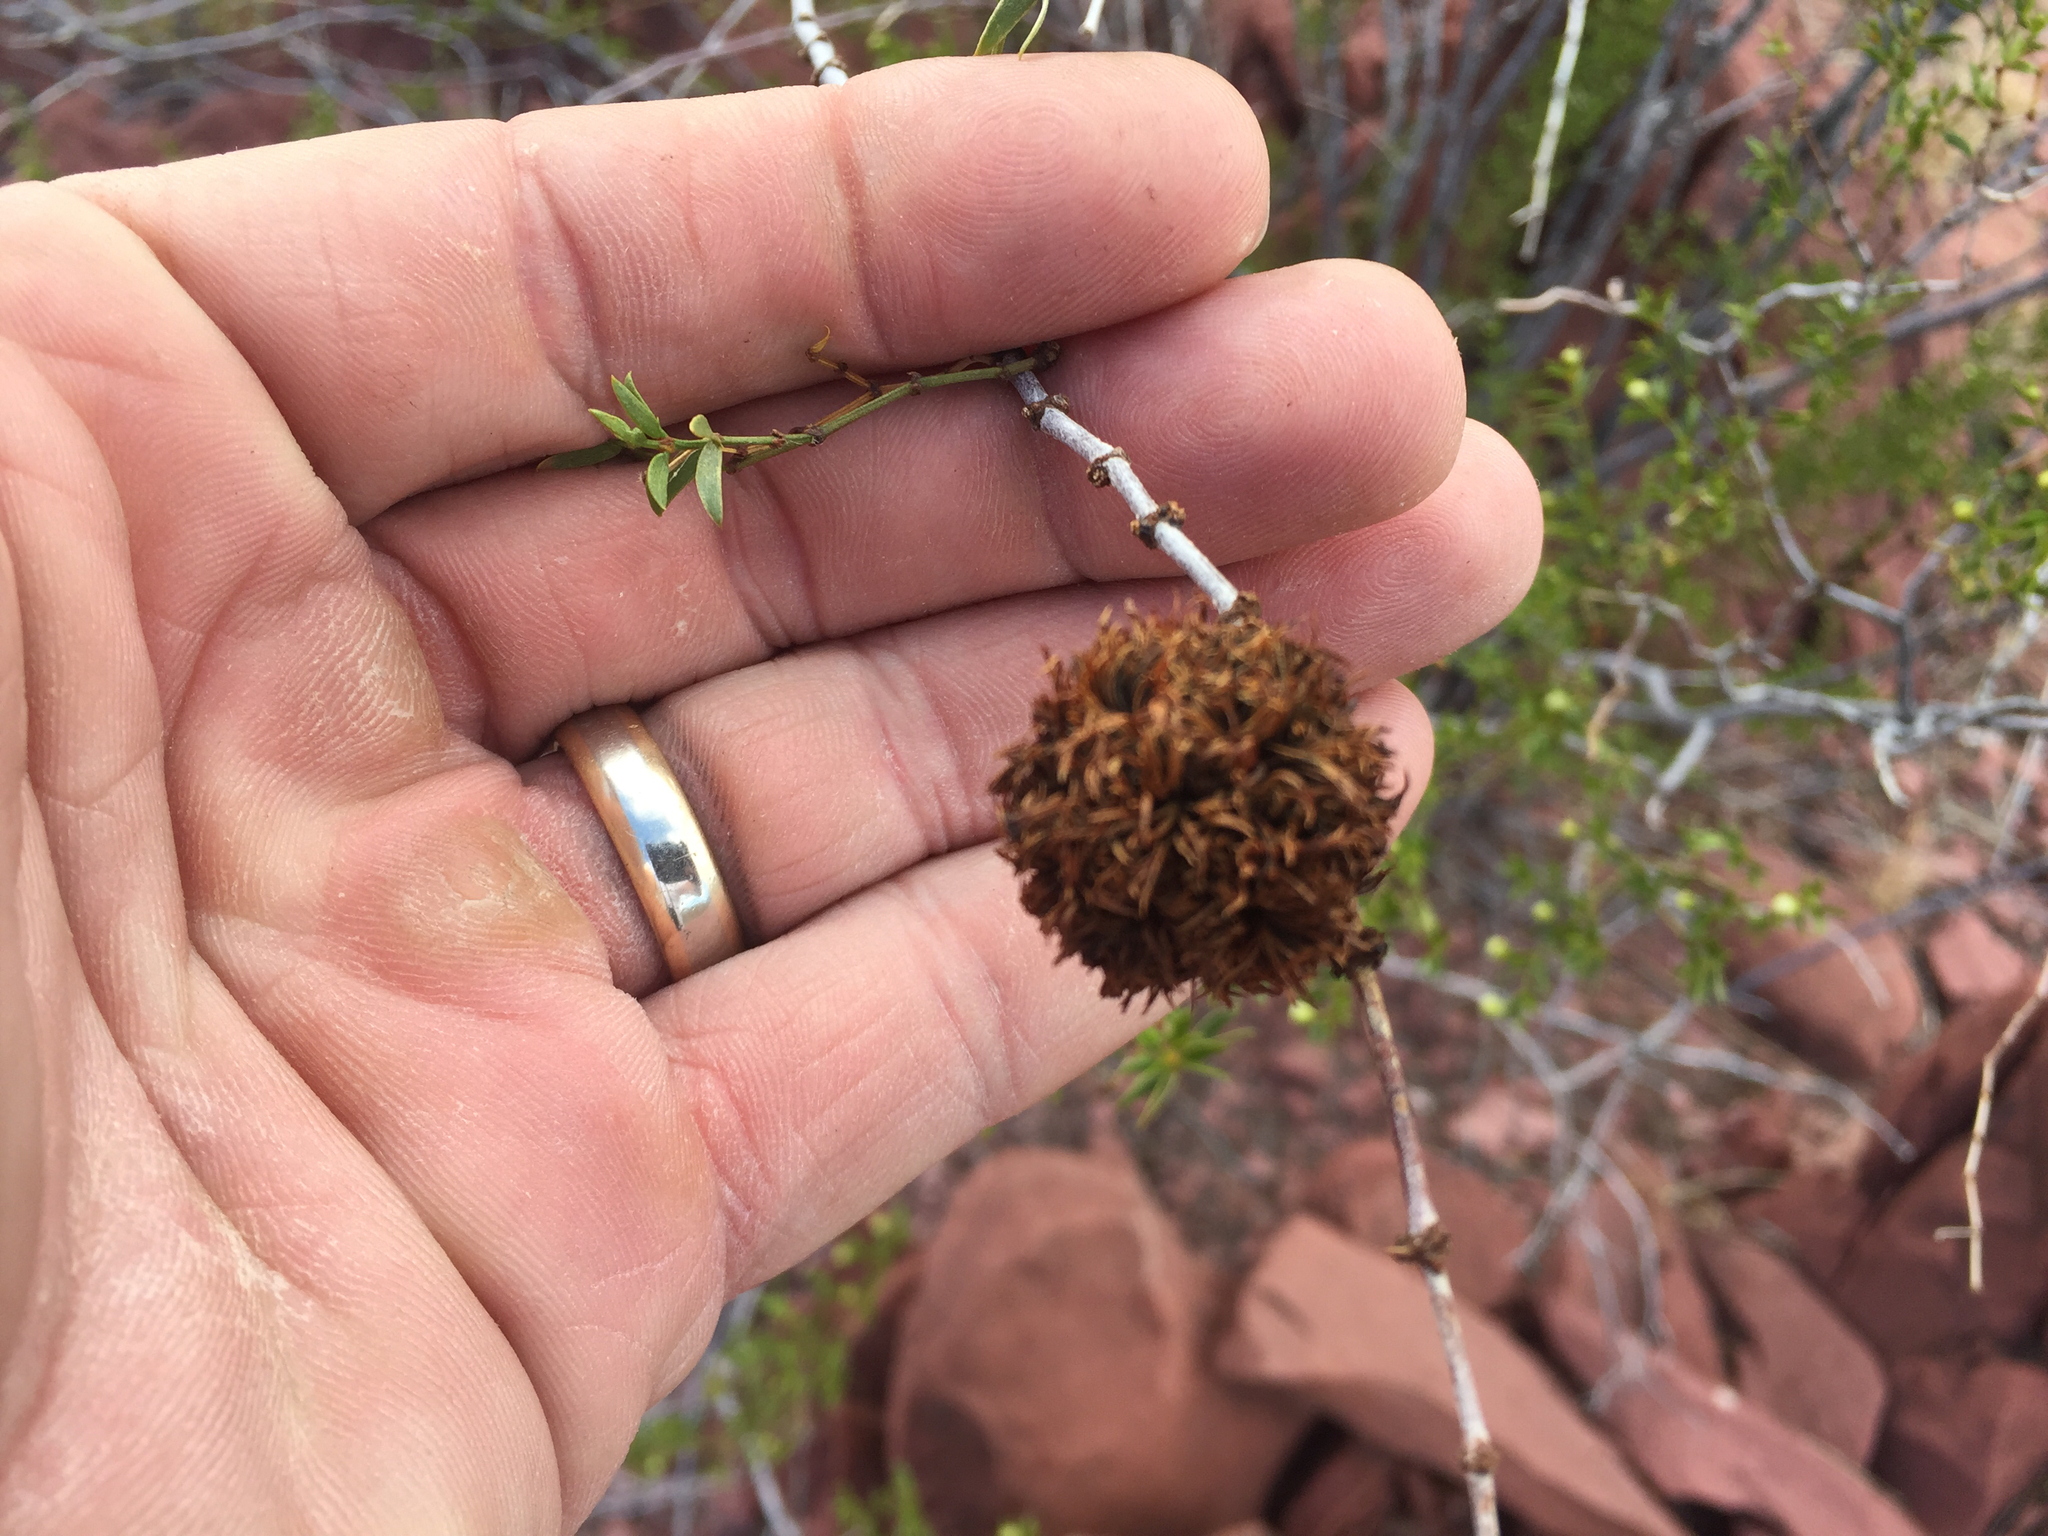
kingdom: Animalia
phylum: Arthropoda
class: Insecta
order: Diptera
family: Cecidomyiidae
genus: Asphondylia
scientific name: Asphondylia auripila
